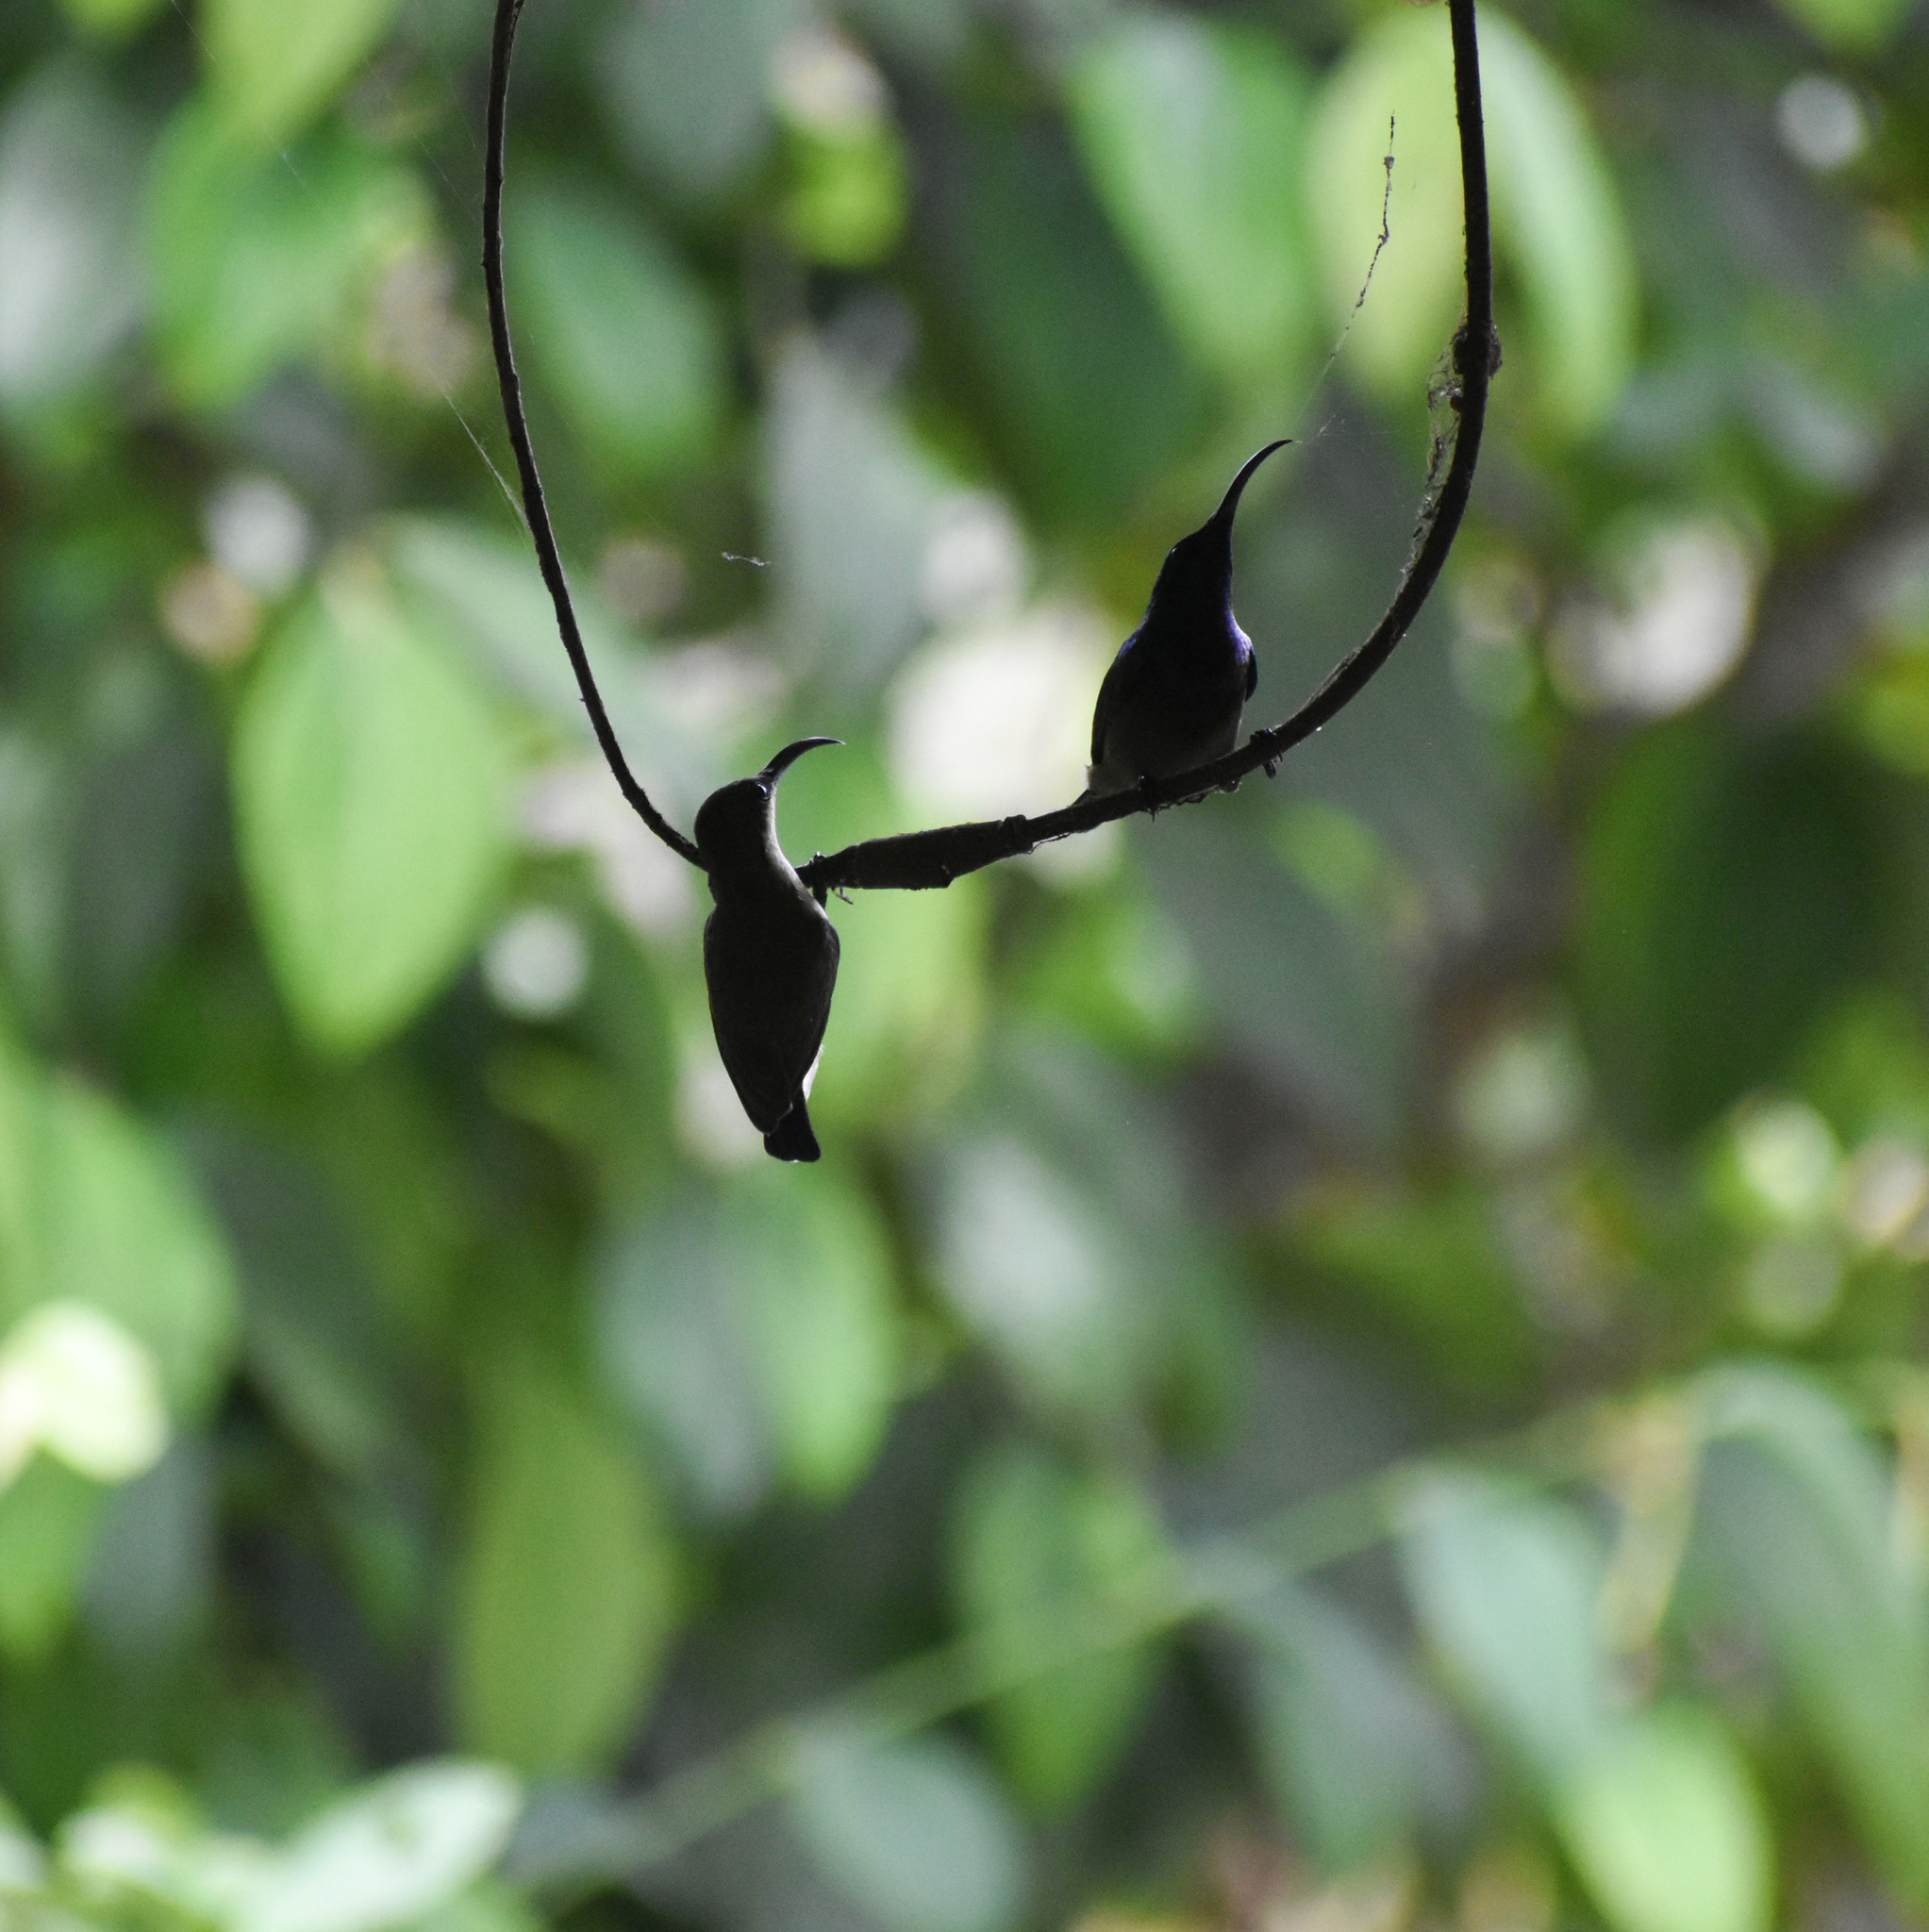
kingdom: Animalia
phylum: Chordata
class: Aves
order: Passeriformes
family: Nectariniidae
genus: Cinnyris
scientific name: Cinnyris lotenius
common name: Loten's sunbird
